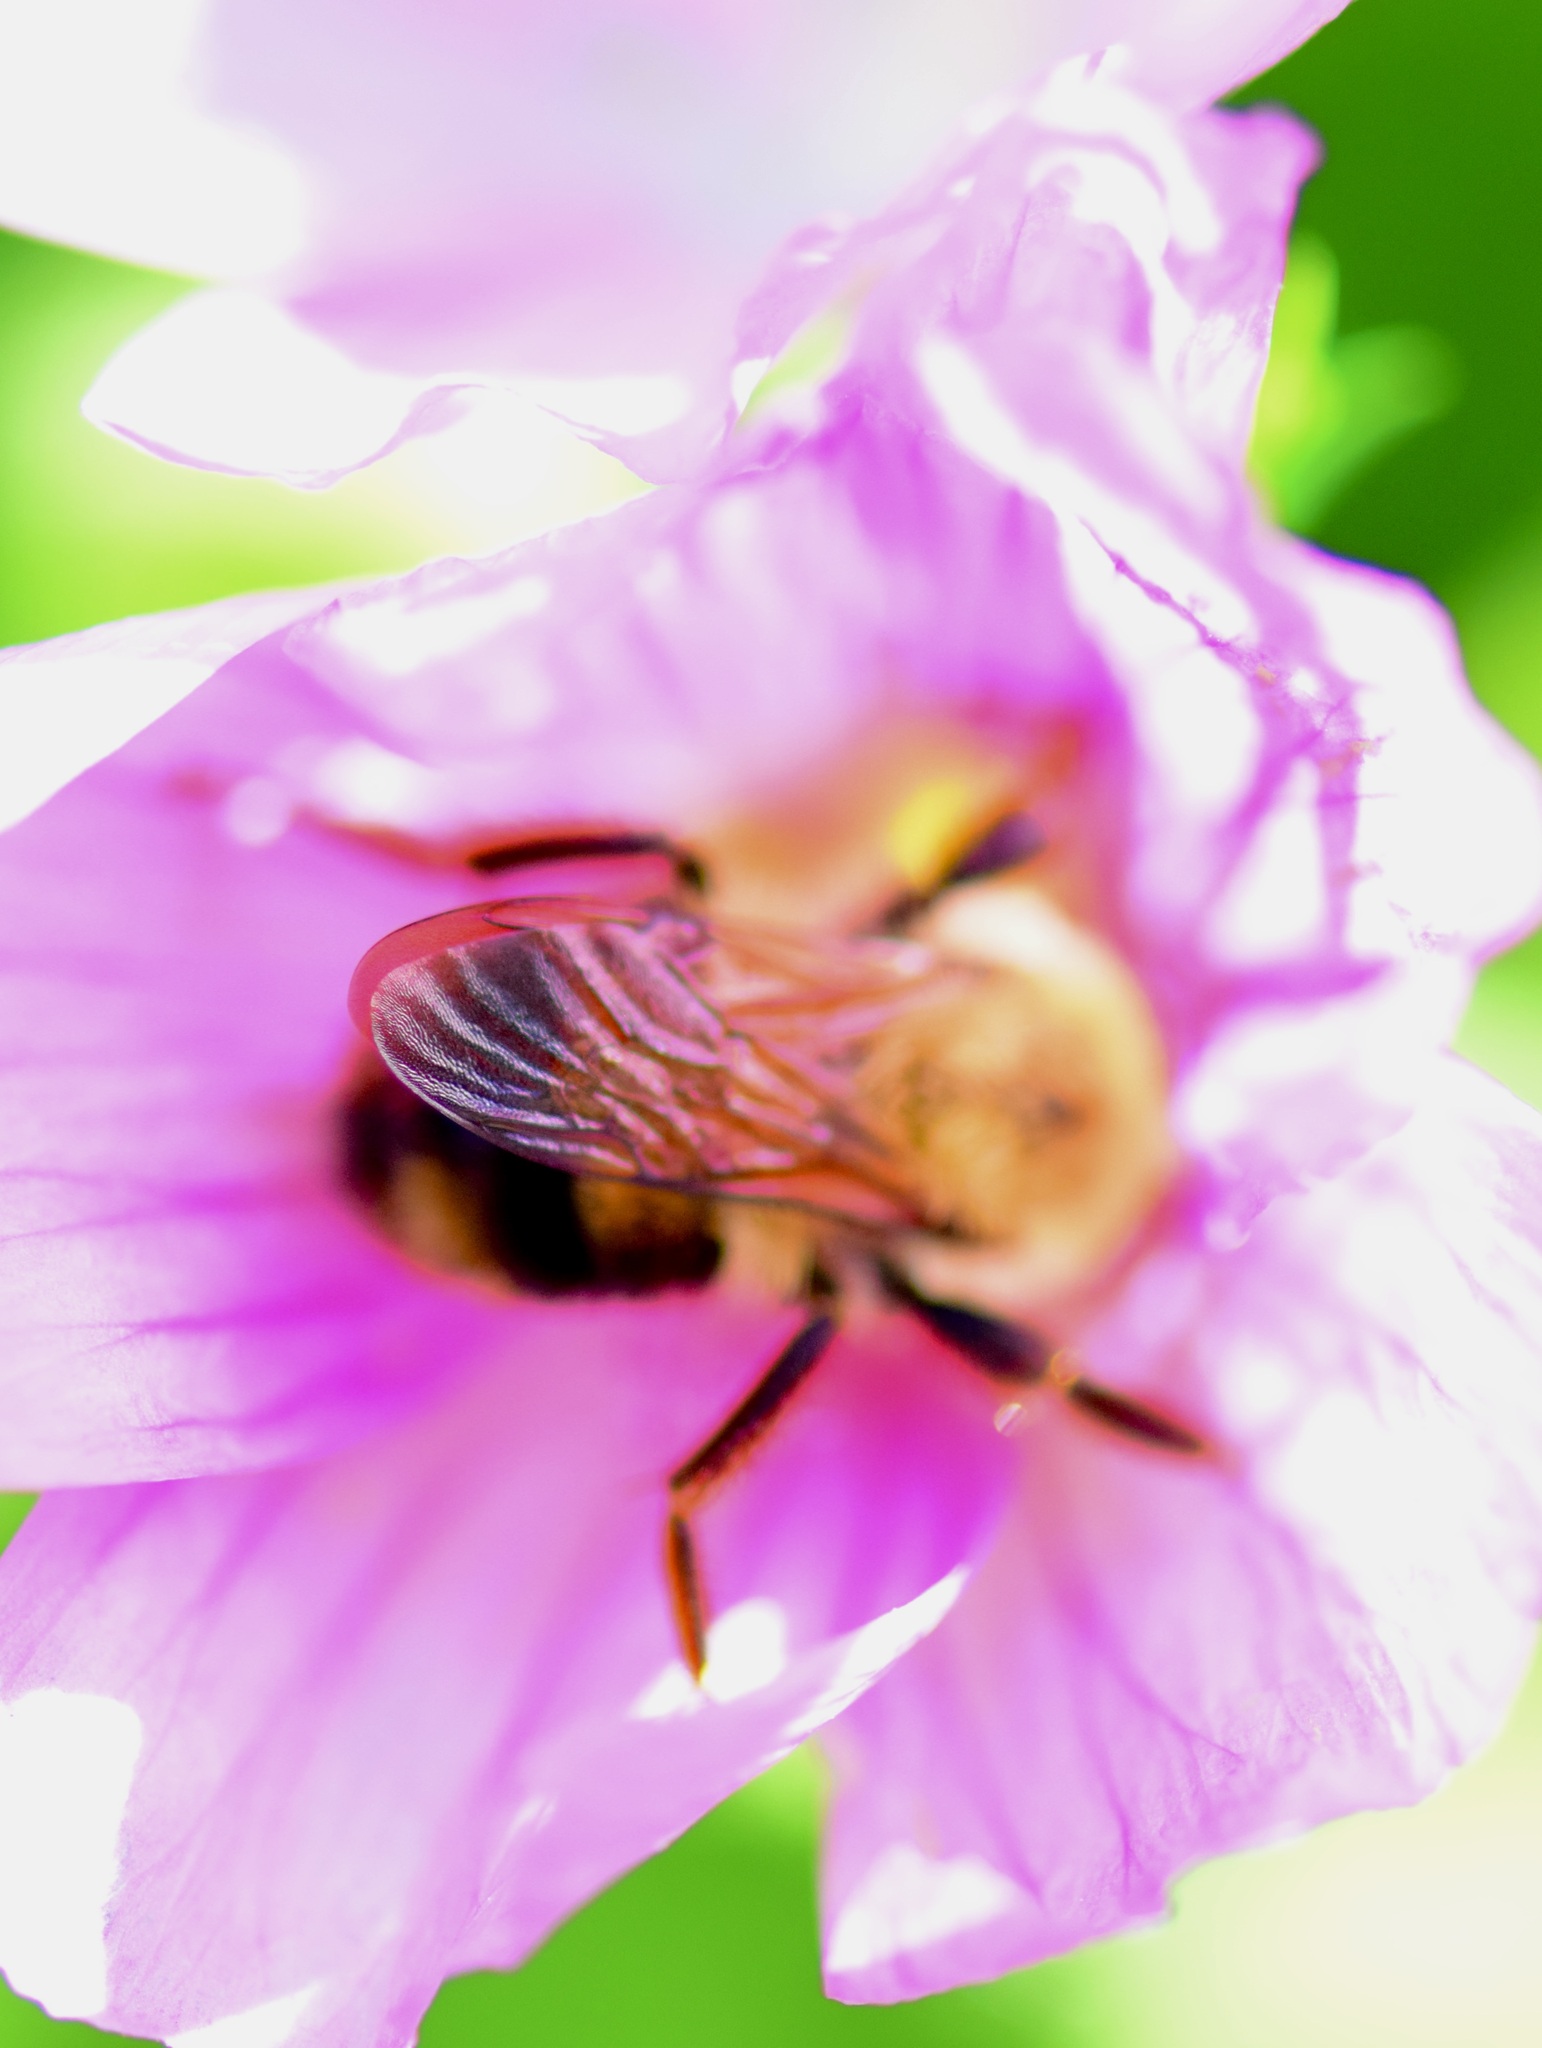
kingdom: Animalia
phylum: Arthropoda
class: Insecta
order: Hymenoptera
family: Apidae
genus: Bombus
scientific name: Bombus bimaculatus
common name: Two-spotted bumble bee
